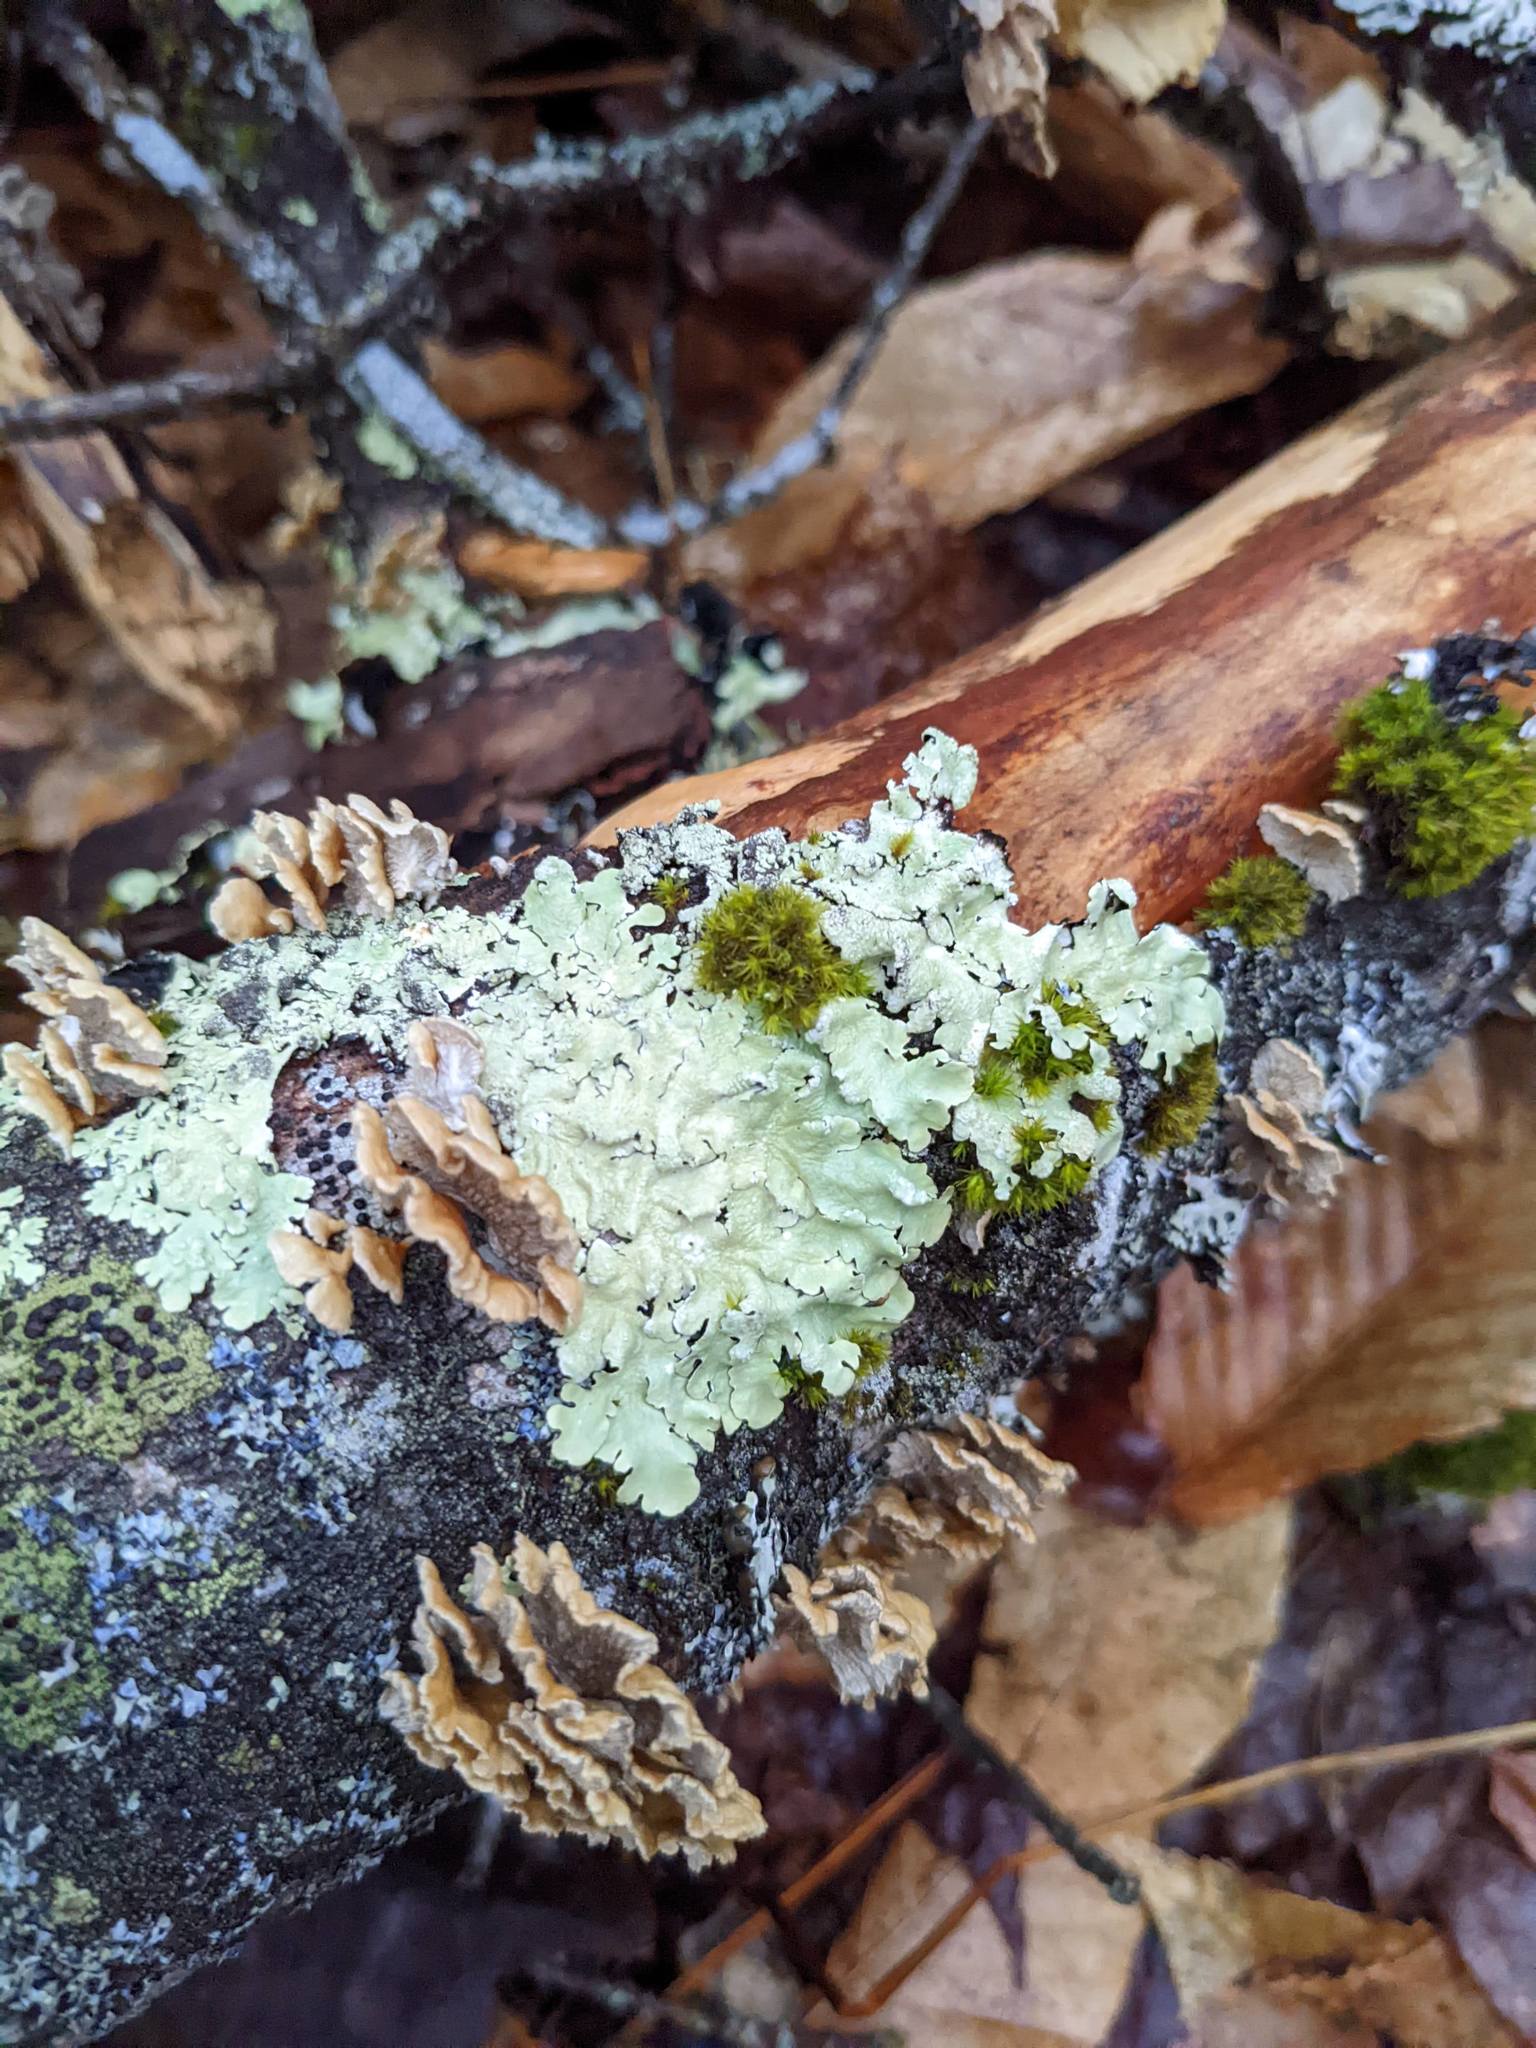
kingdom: Fungi
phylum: Ascomycota
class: Lecanoromycetes
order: Lecanorales
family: Parmeliaceae
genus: Flavoparmelia
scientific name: Flavoparmelia caperata
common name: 40-mile per hour lichen
